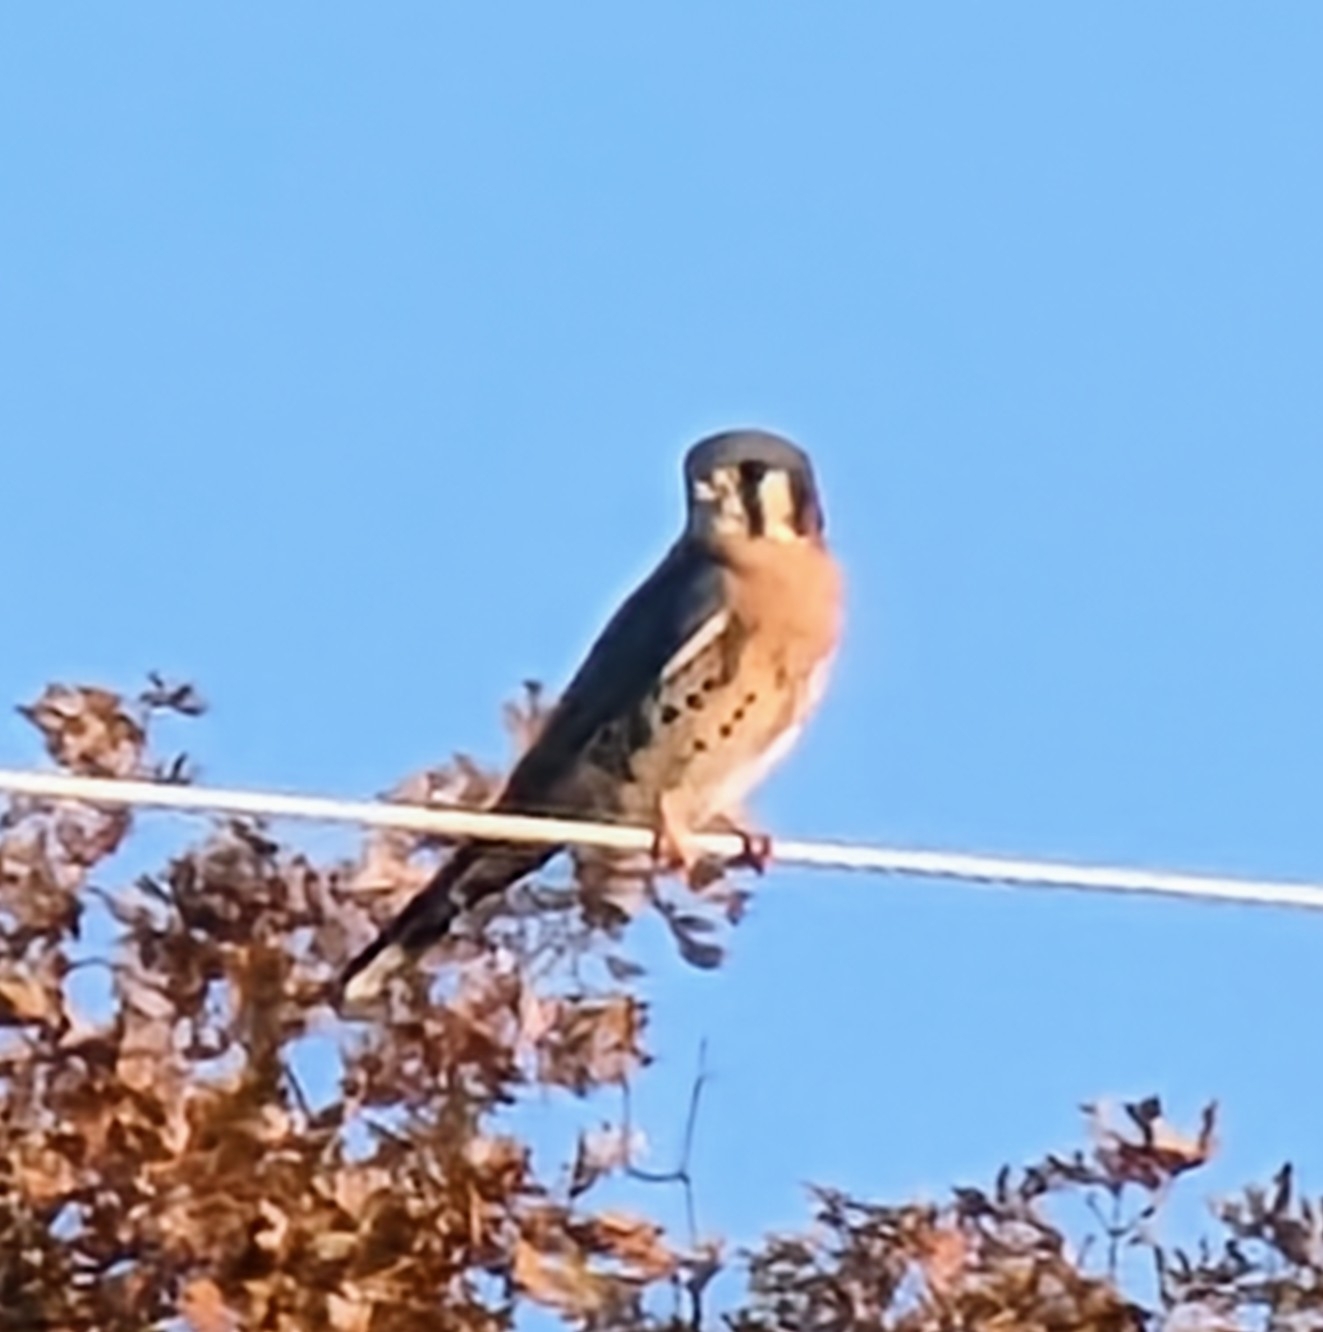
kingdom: Animalia
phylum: Chordata
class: Aves
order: Falconiformes
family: Falconidae
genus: Falco
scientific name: Falco sparverius
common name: American kestrel
